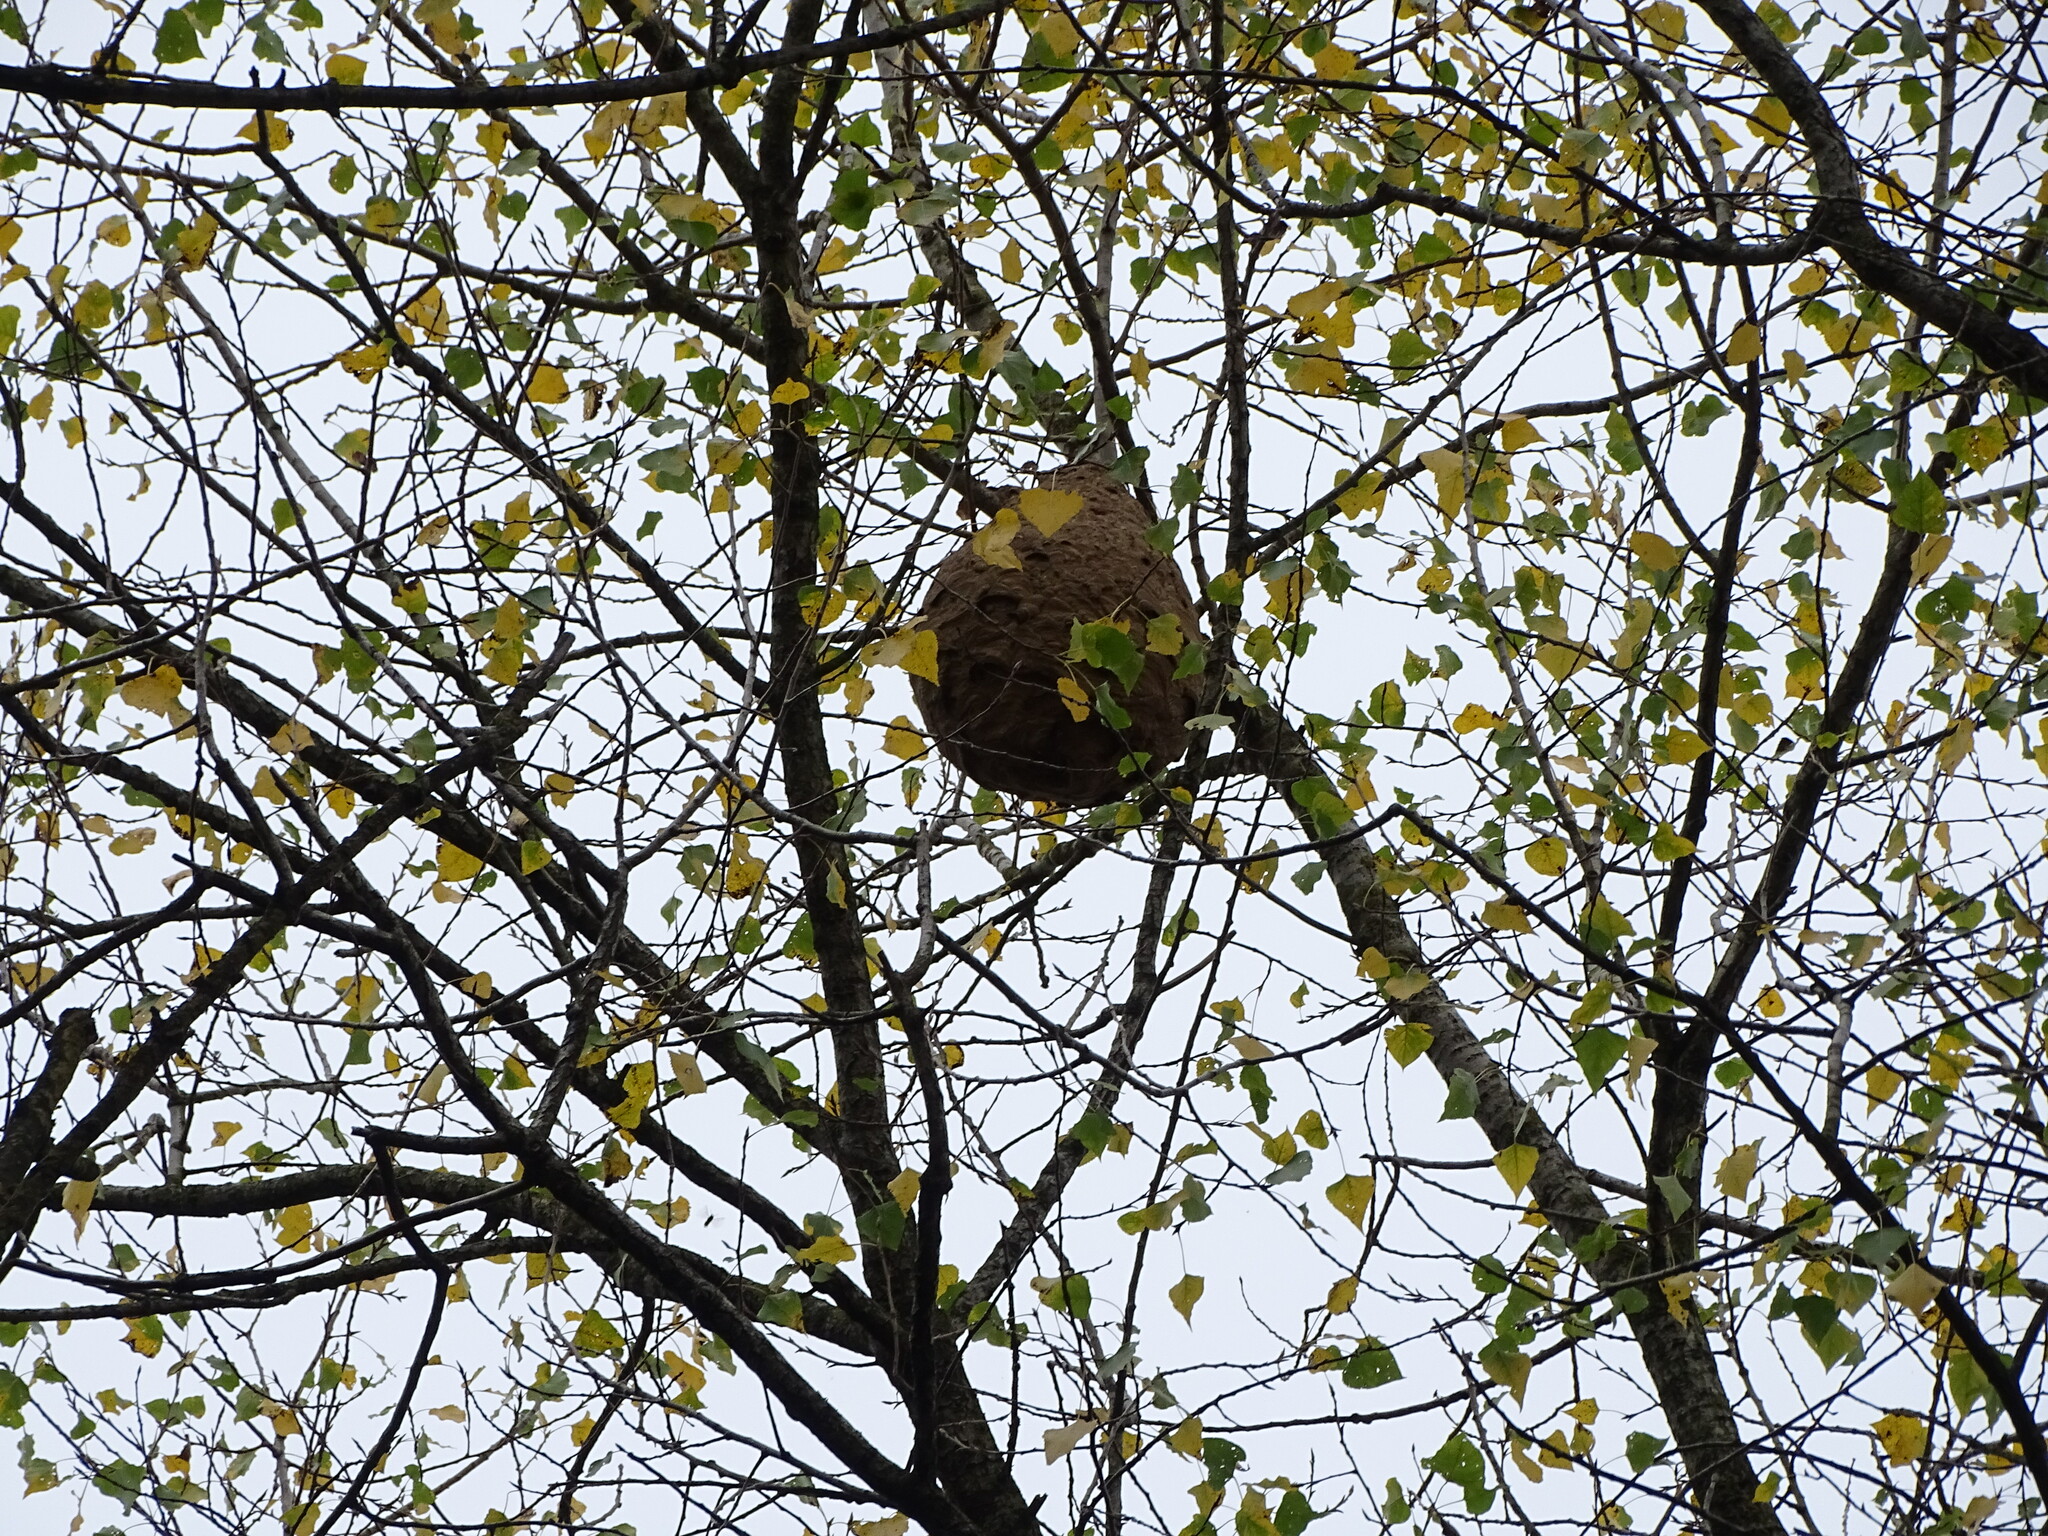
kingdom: Animalia
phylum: Arthropoda
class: Insecta
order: Hymenoptera
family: Vespidae
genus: Vespa
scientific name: Vespa velutina
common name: Asian hornet
